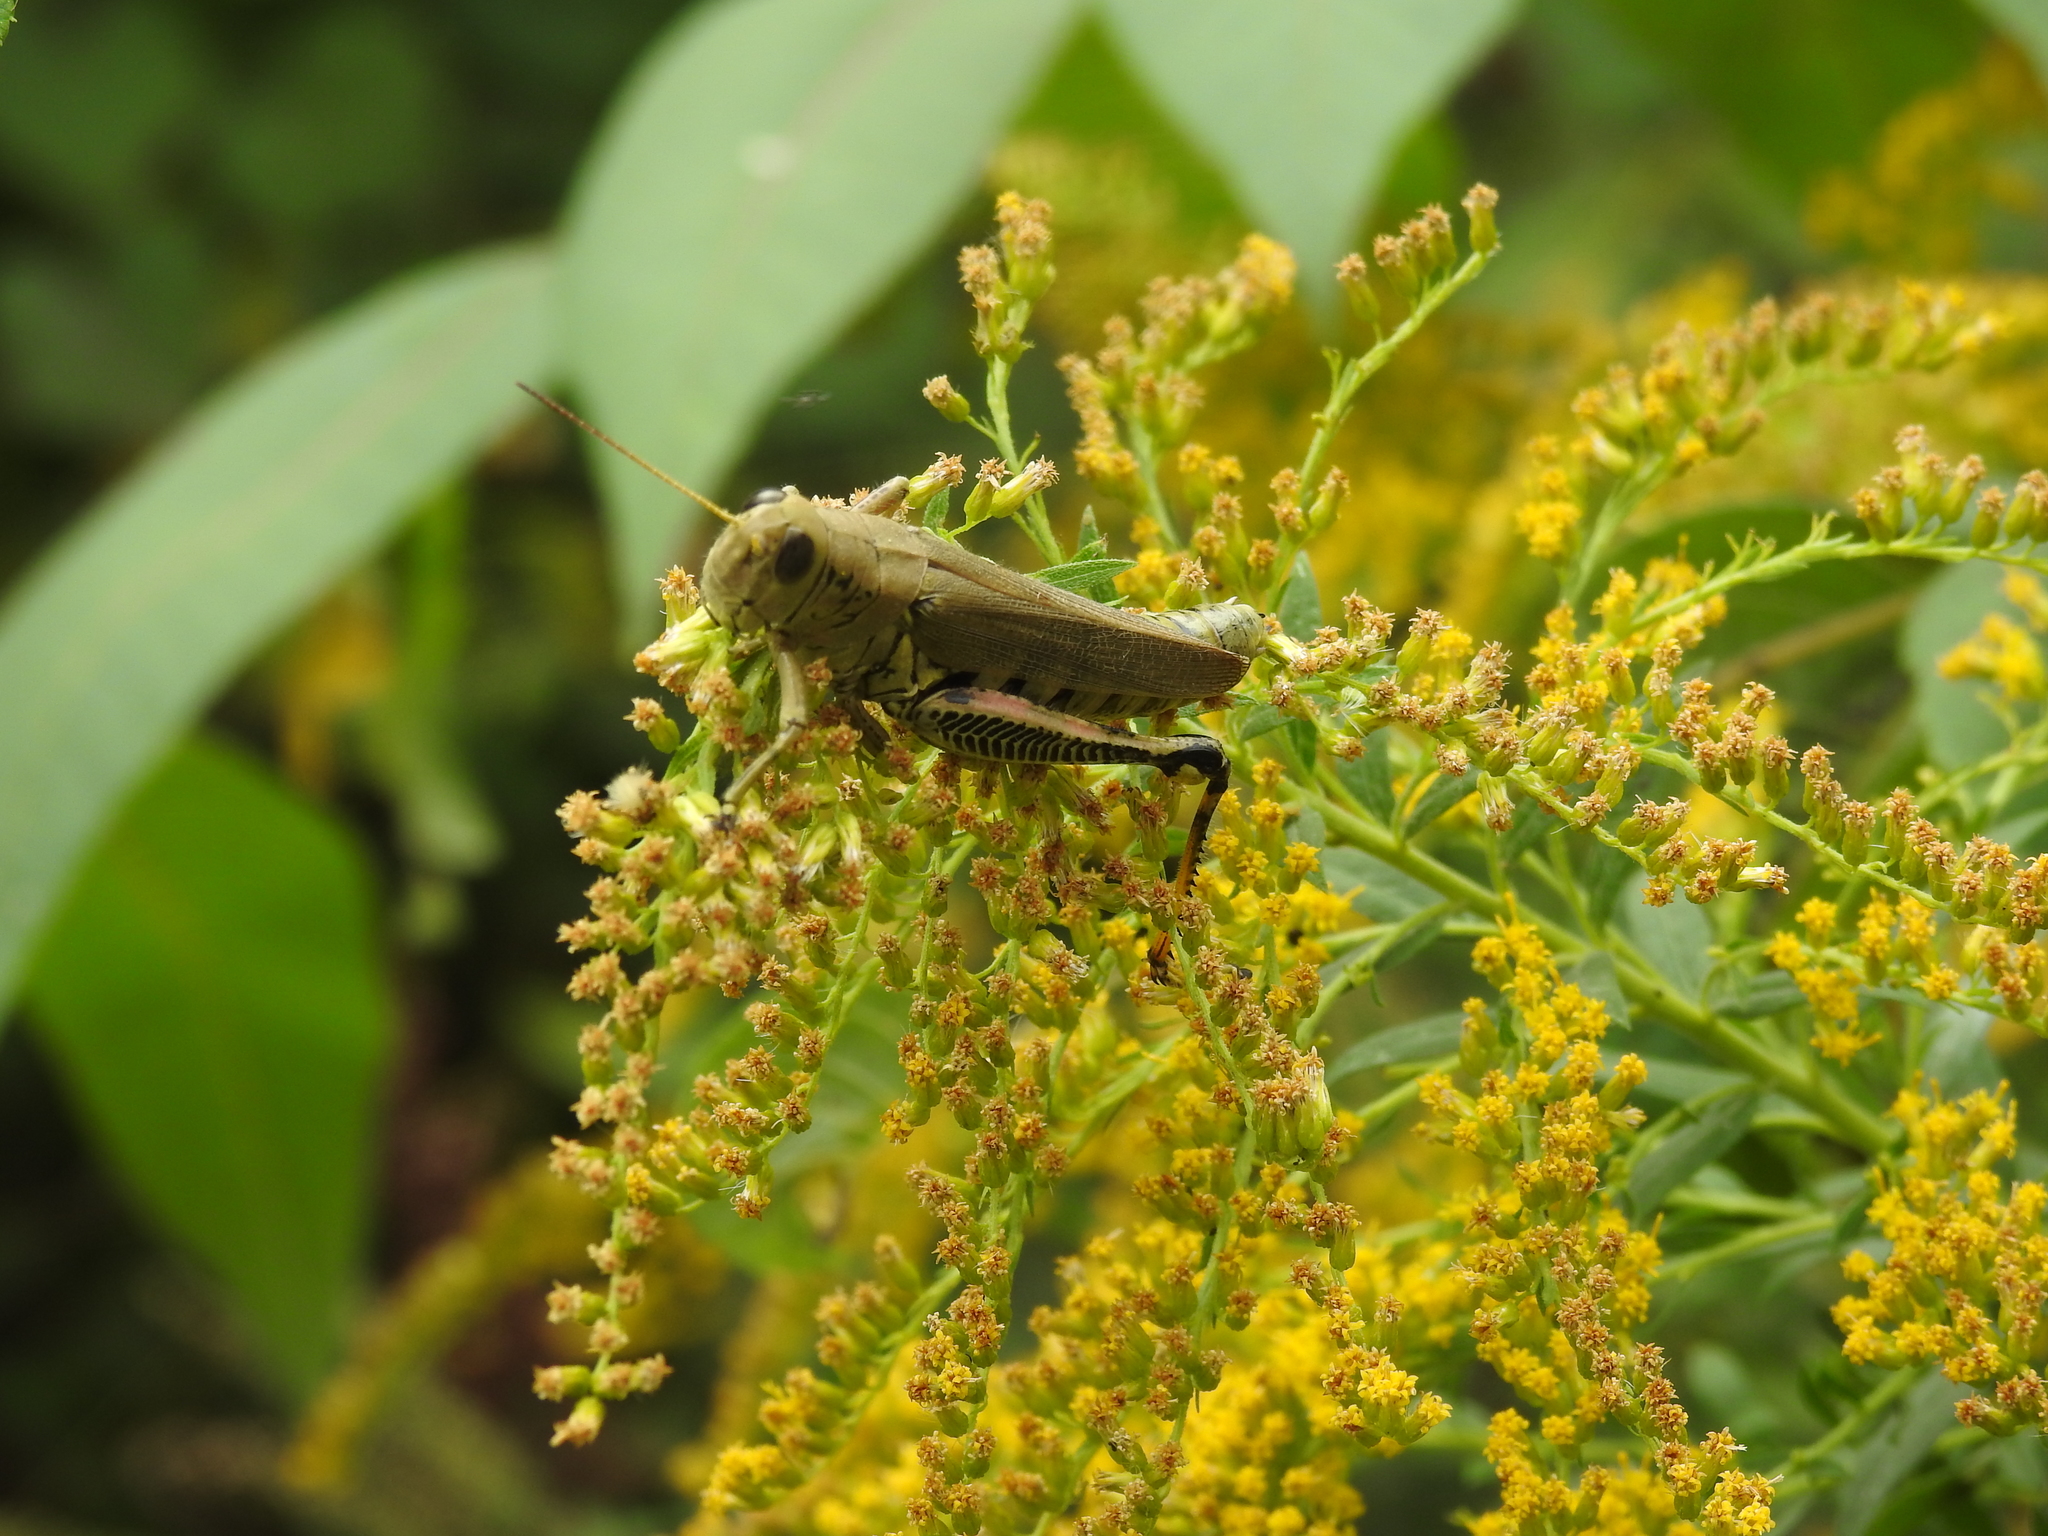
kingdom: Animalia
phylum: Arthropoda
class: Insecta
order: Orthoptera
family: Acrididae
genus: Melanoplus
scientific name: Melanoplus differentialis
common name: Differential grasshopper
